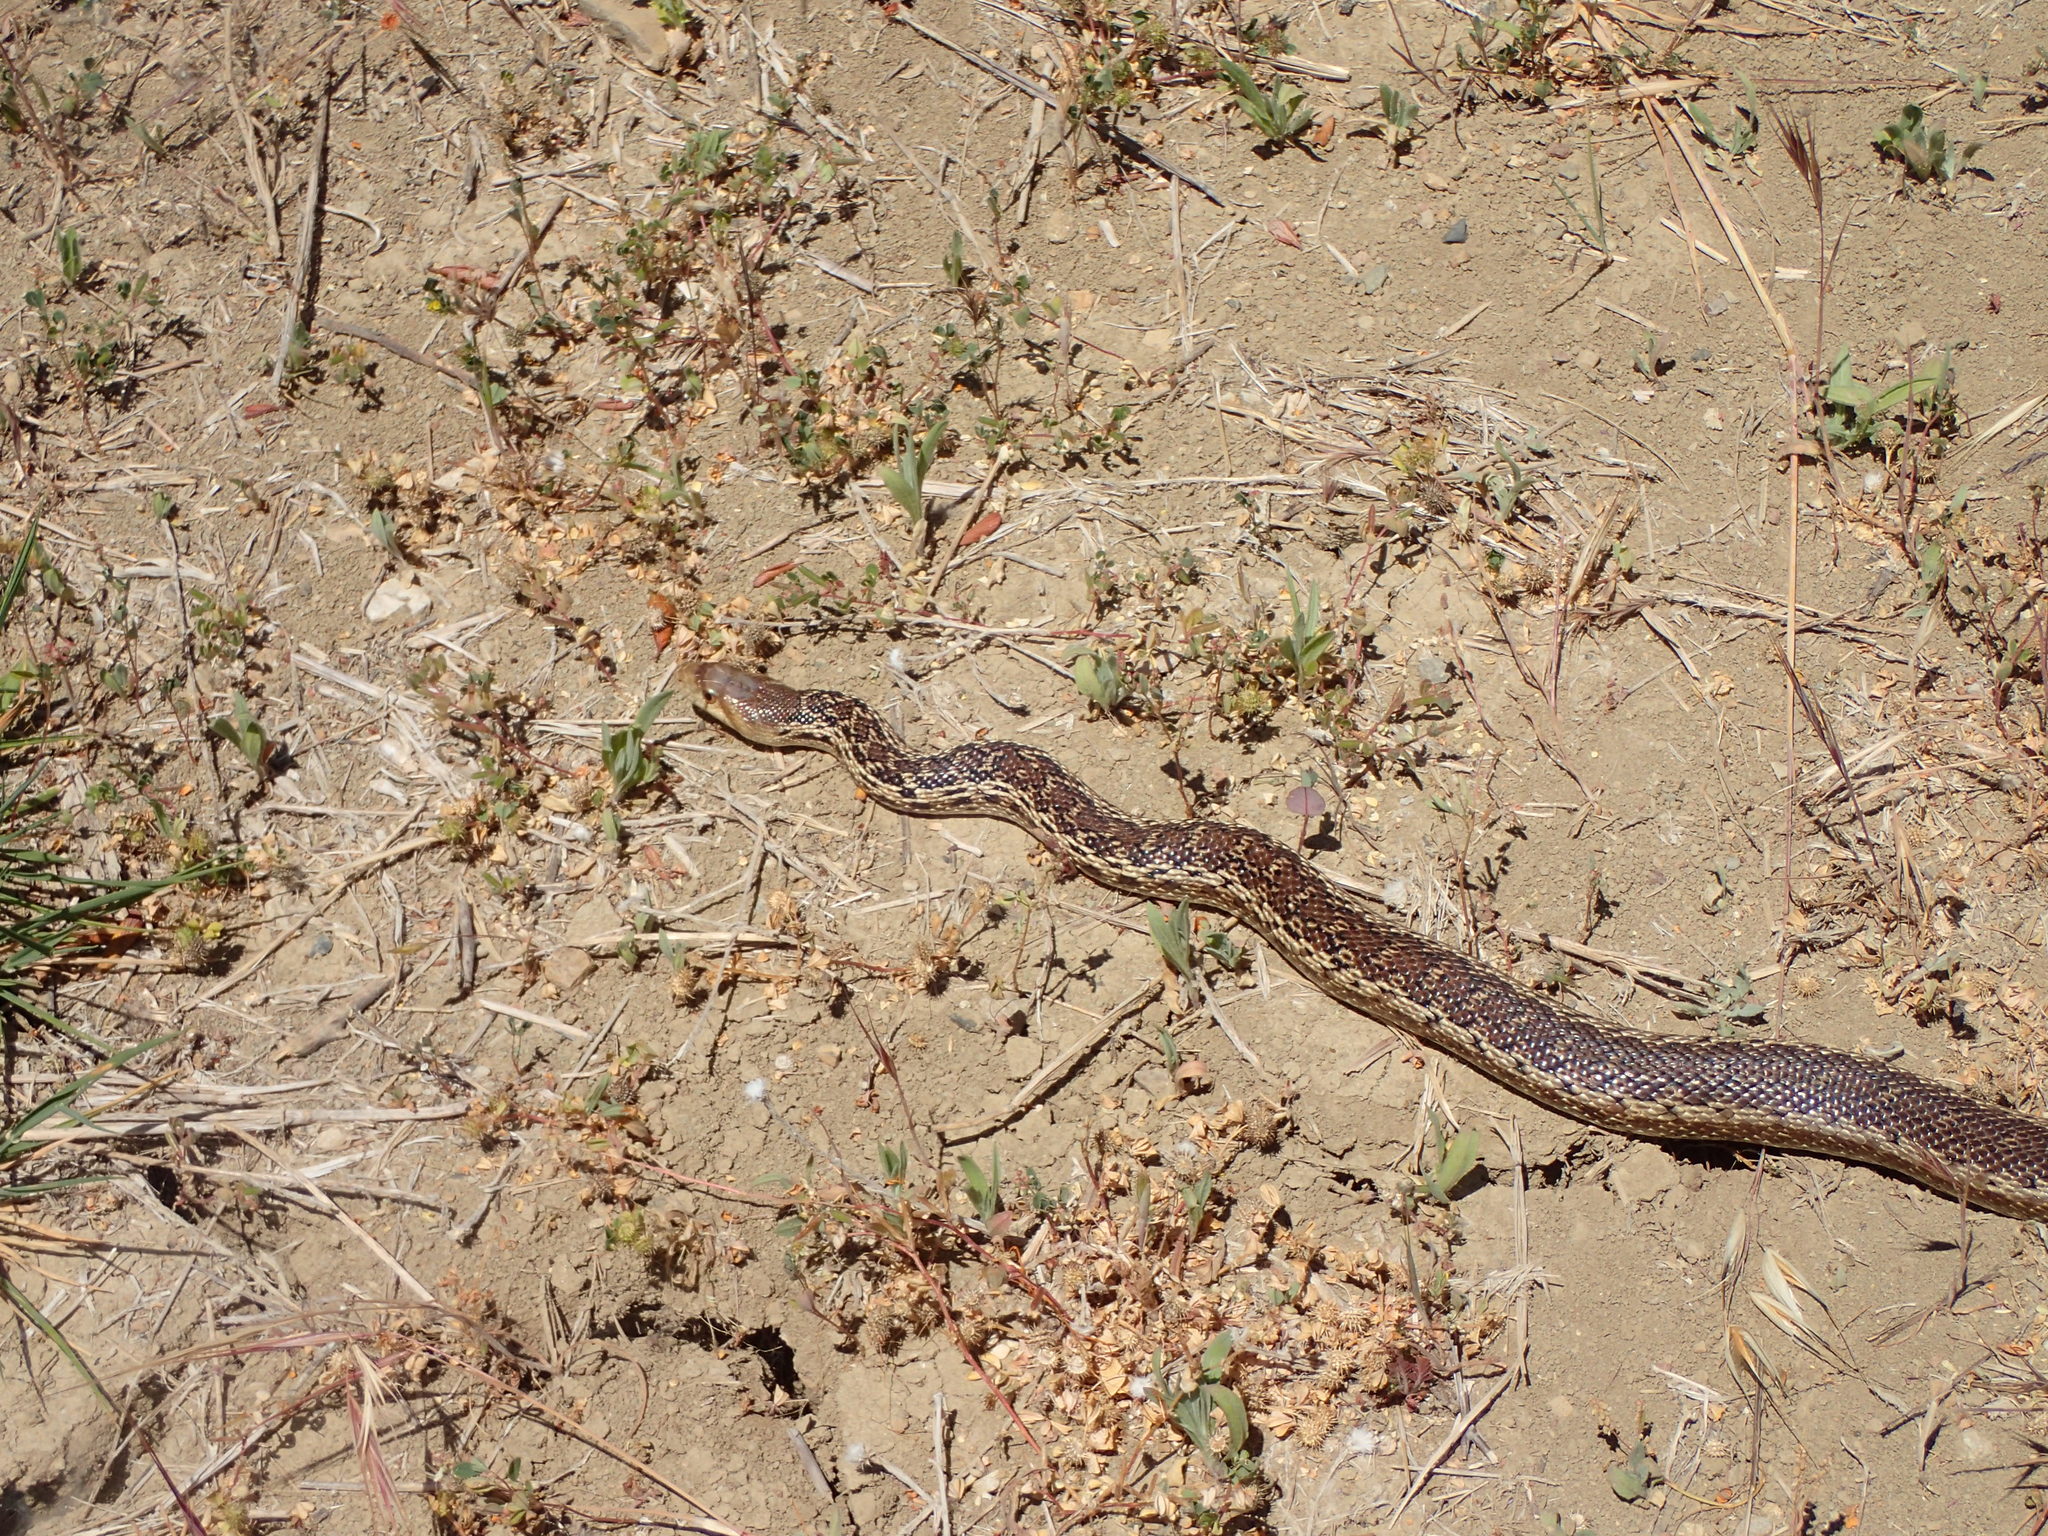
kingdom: Animalia
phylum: Chordata
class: Squamata
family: Colubridae
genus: Pituophis
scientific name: Pituophis catenifer
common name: Gopher snake
